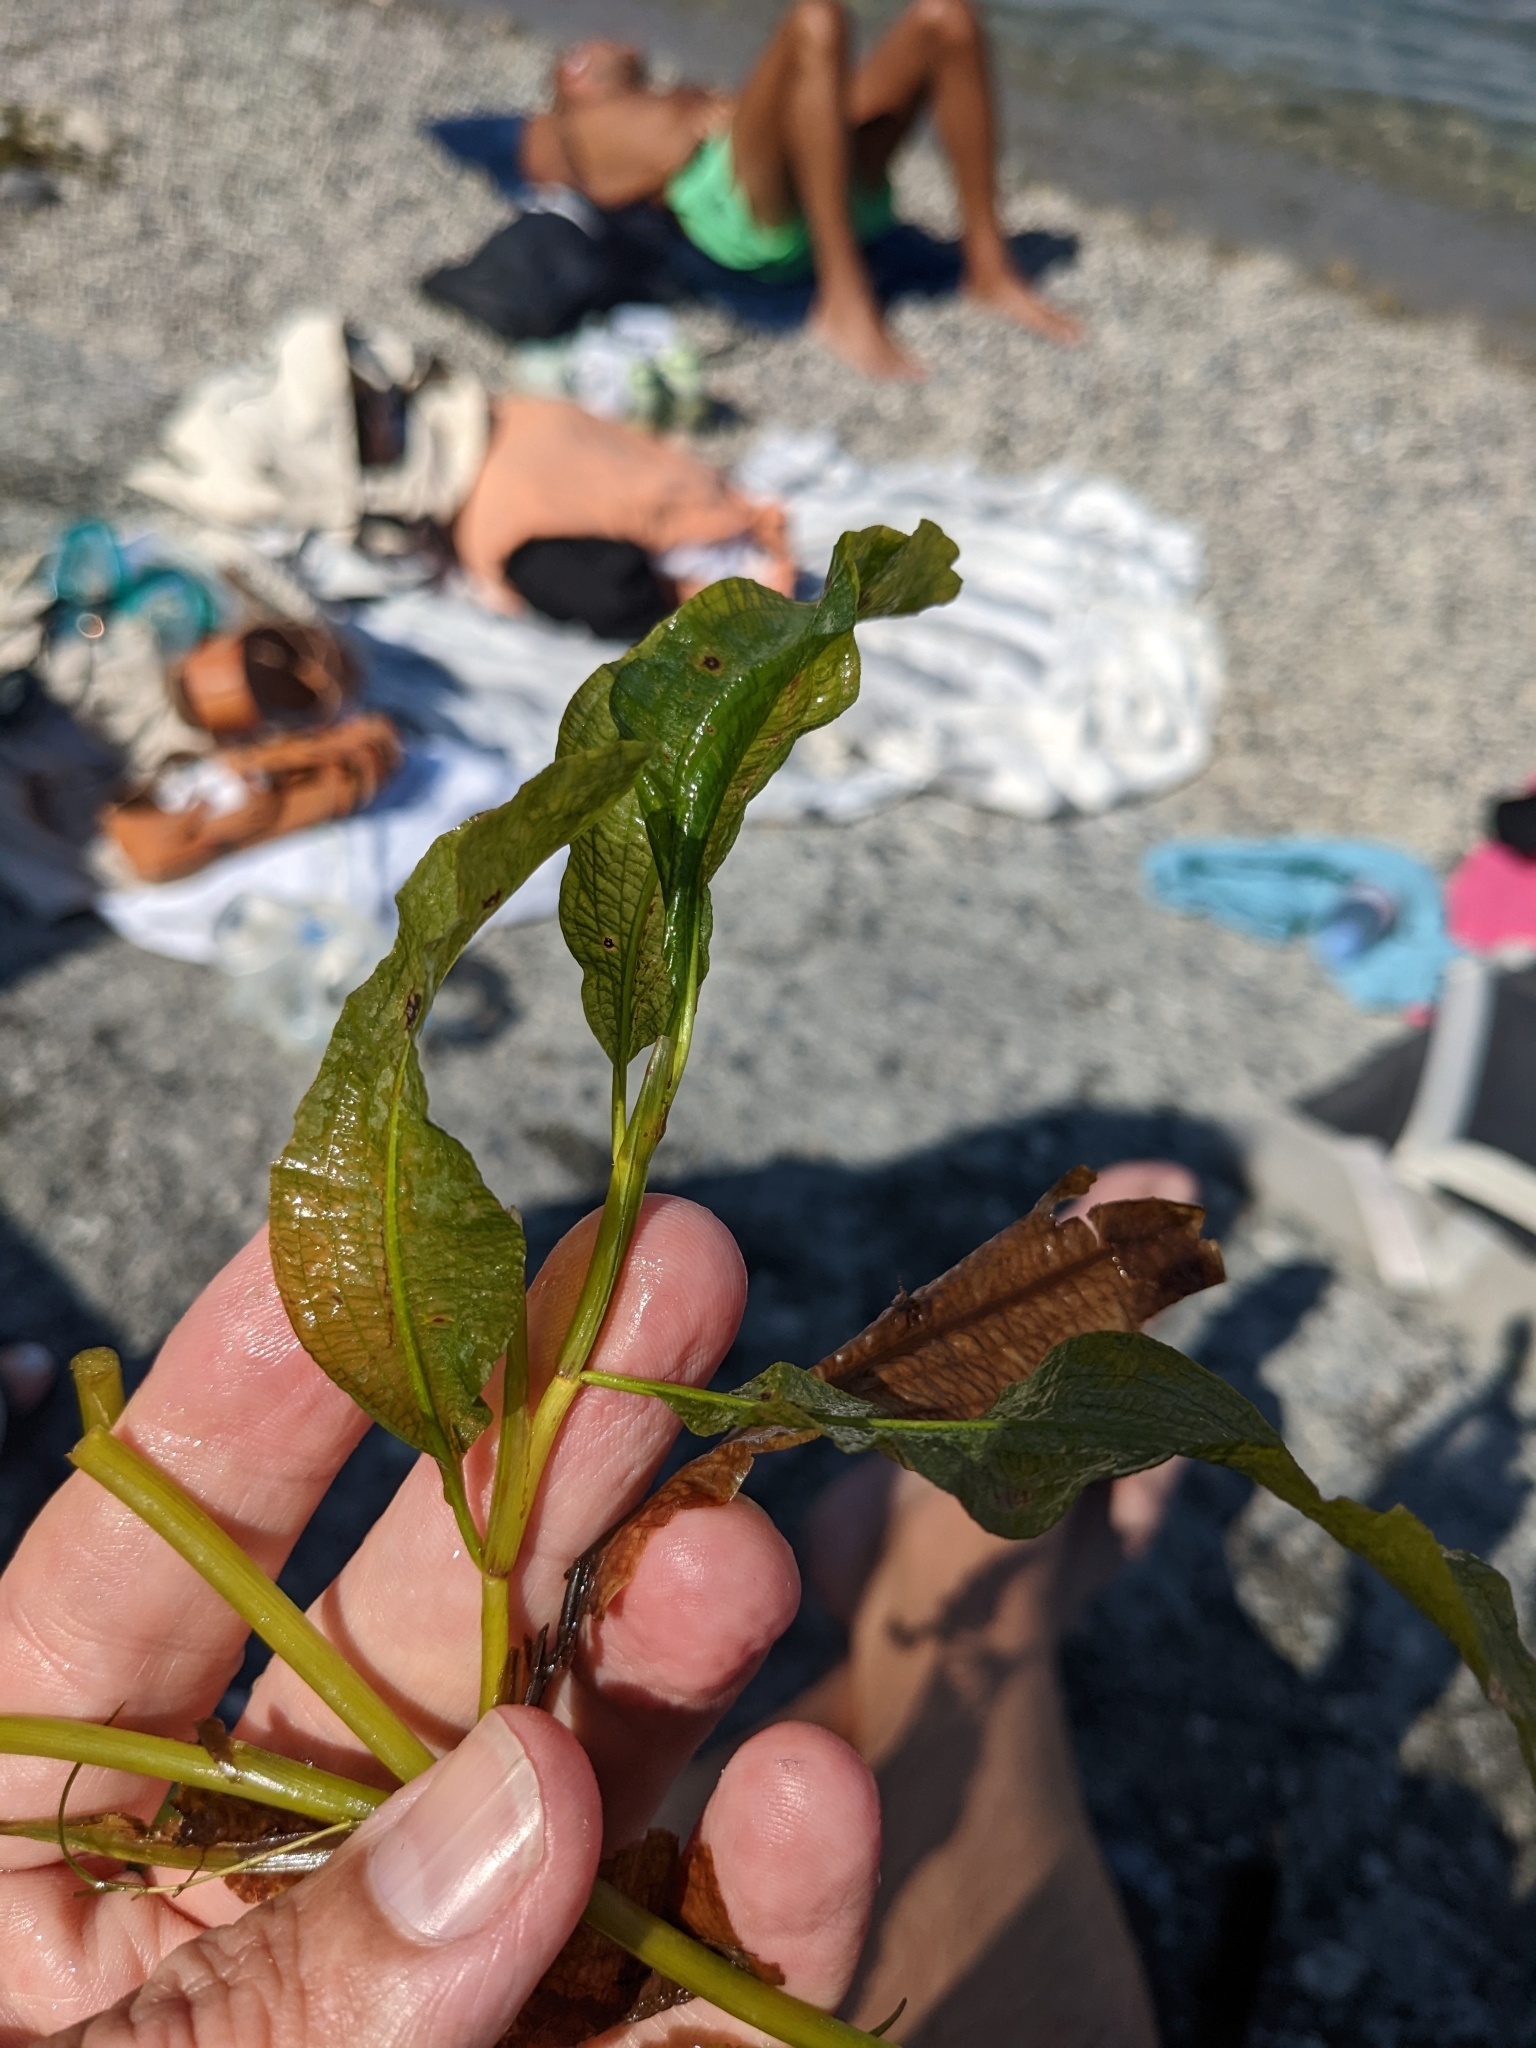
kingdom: Plantae
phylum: Tracheophyta
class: Liliopsida
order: Alismatales
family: Potamogetonaceae
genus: Potamogeton
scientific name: Potamogeton lucens
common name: Shining pondweed
